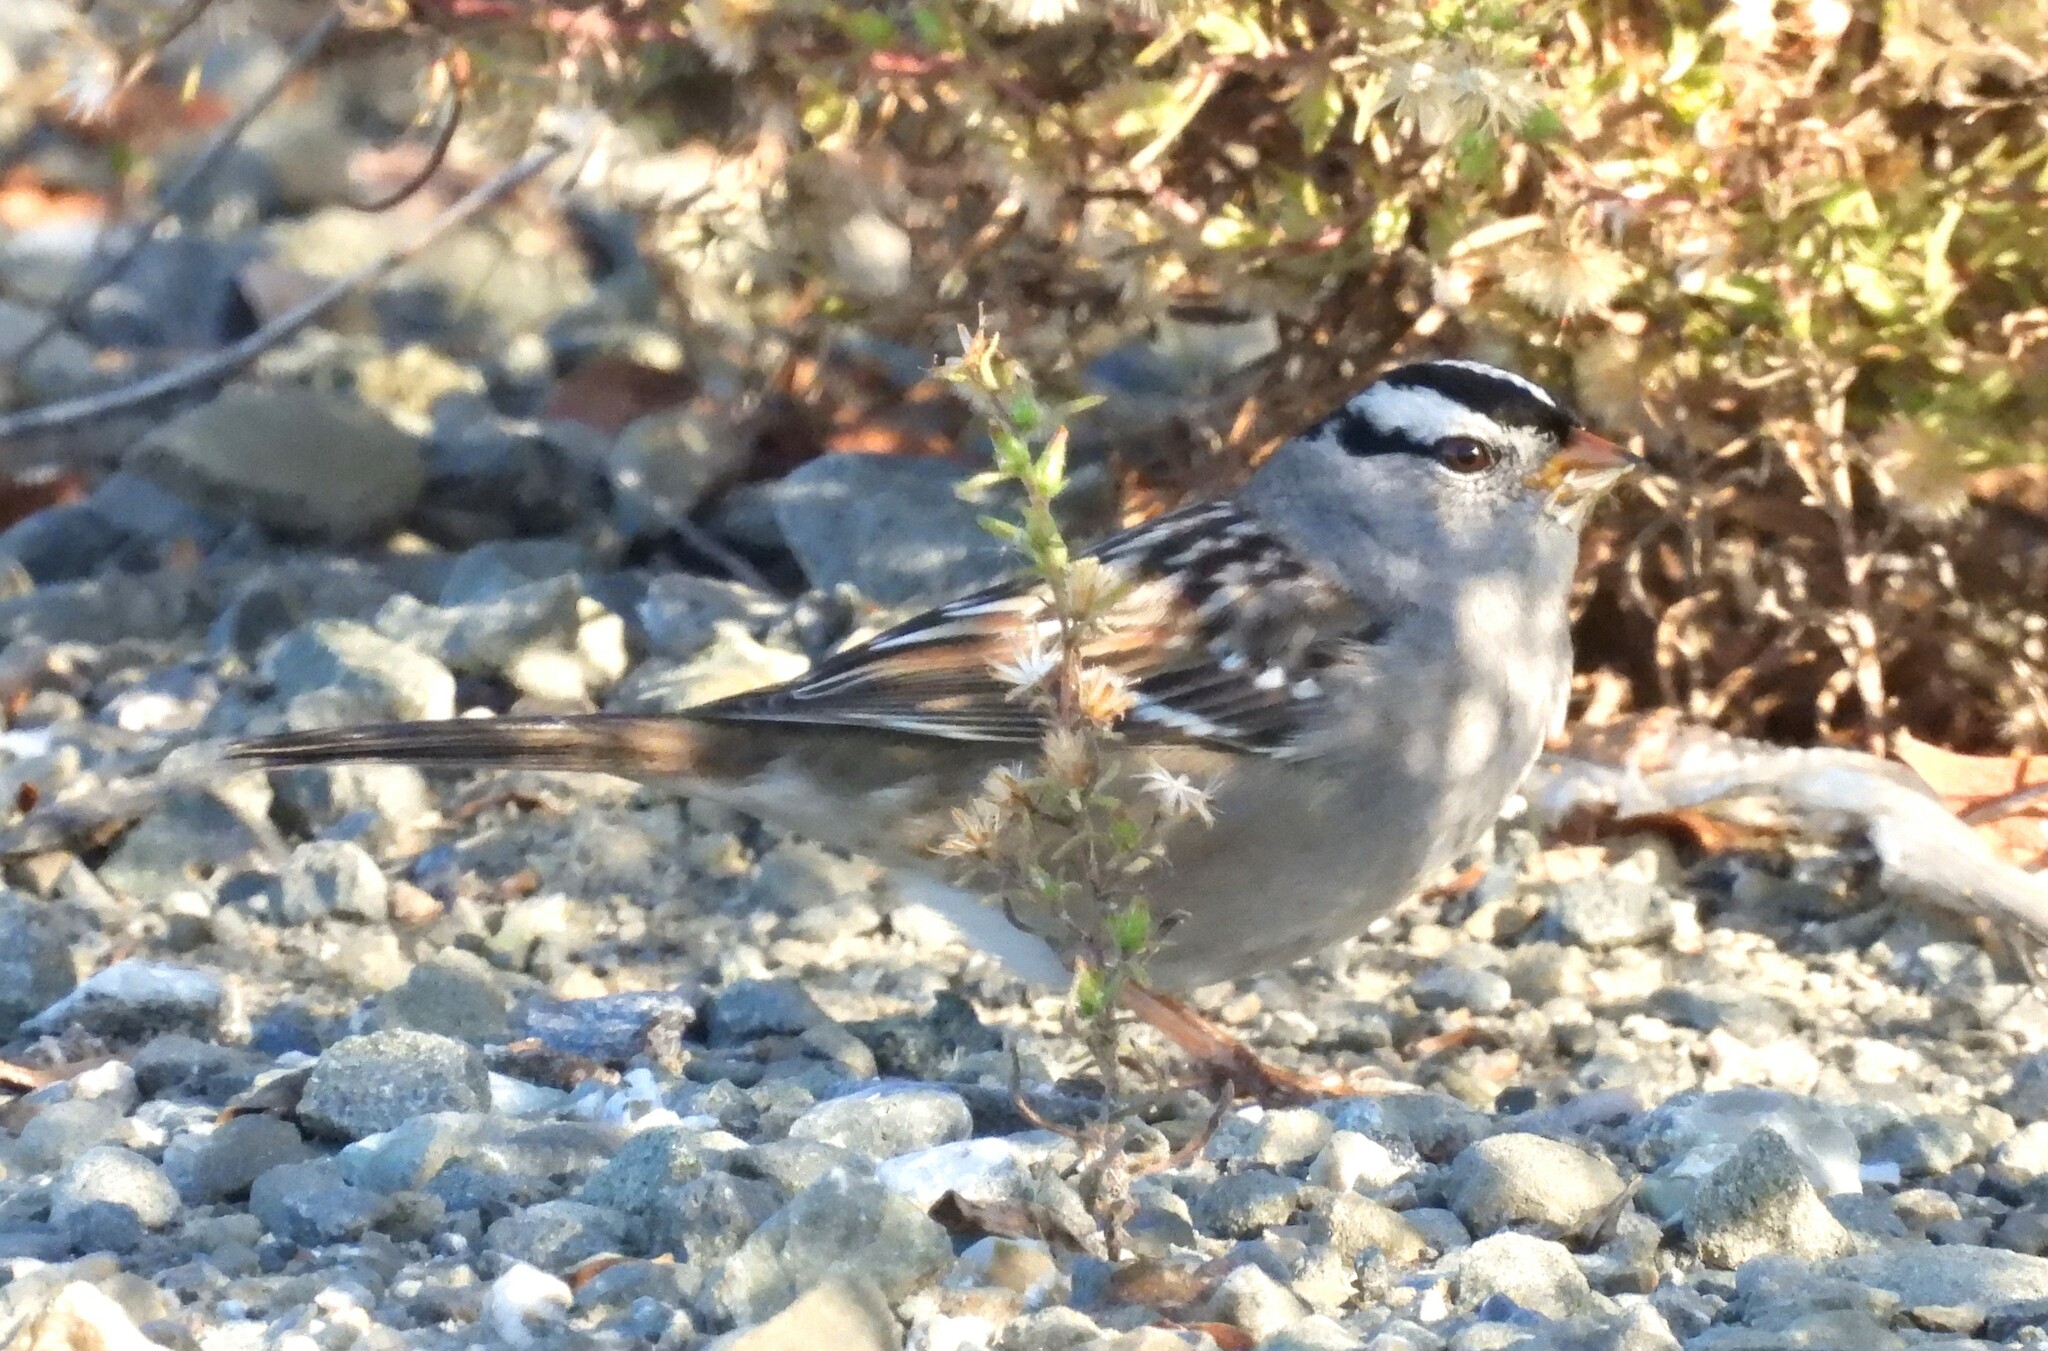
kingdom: Animalia
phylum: Chordata
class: Aves
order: Passeriformes
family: Passerellidae
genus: Zonotrichia
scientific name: Zonotrichia leucophrys
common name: White-crowned sparrow
